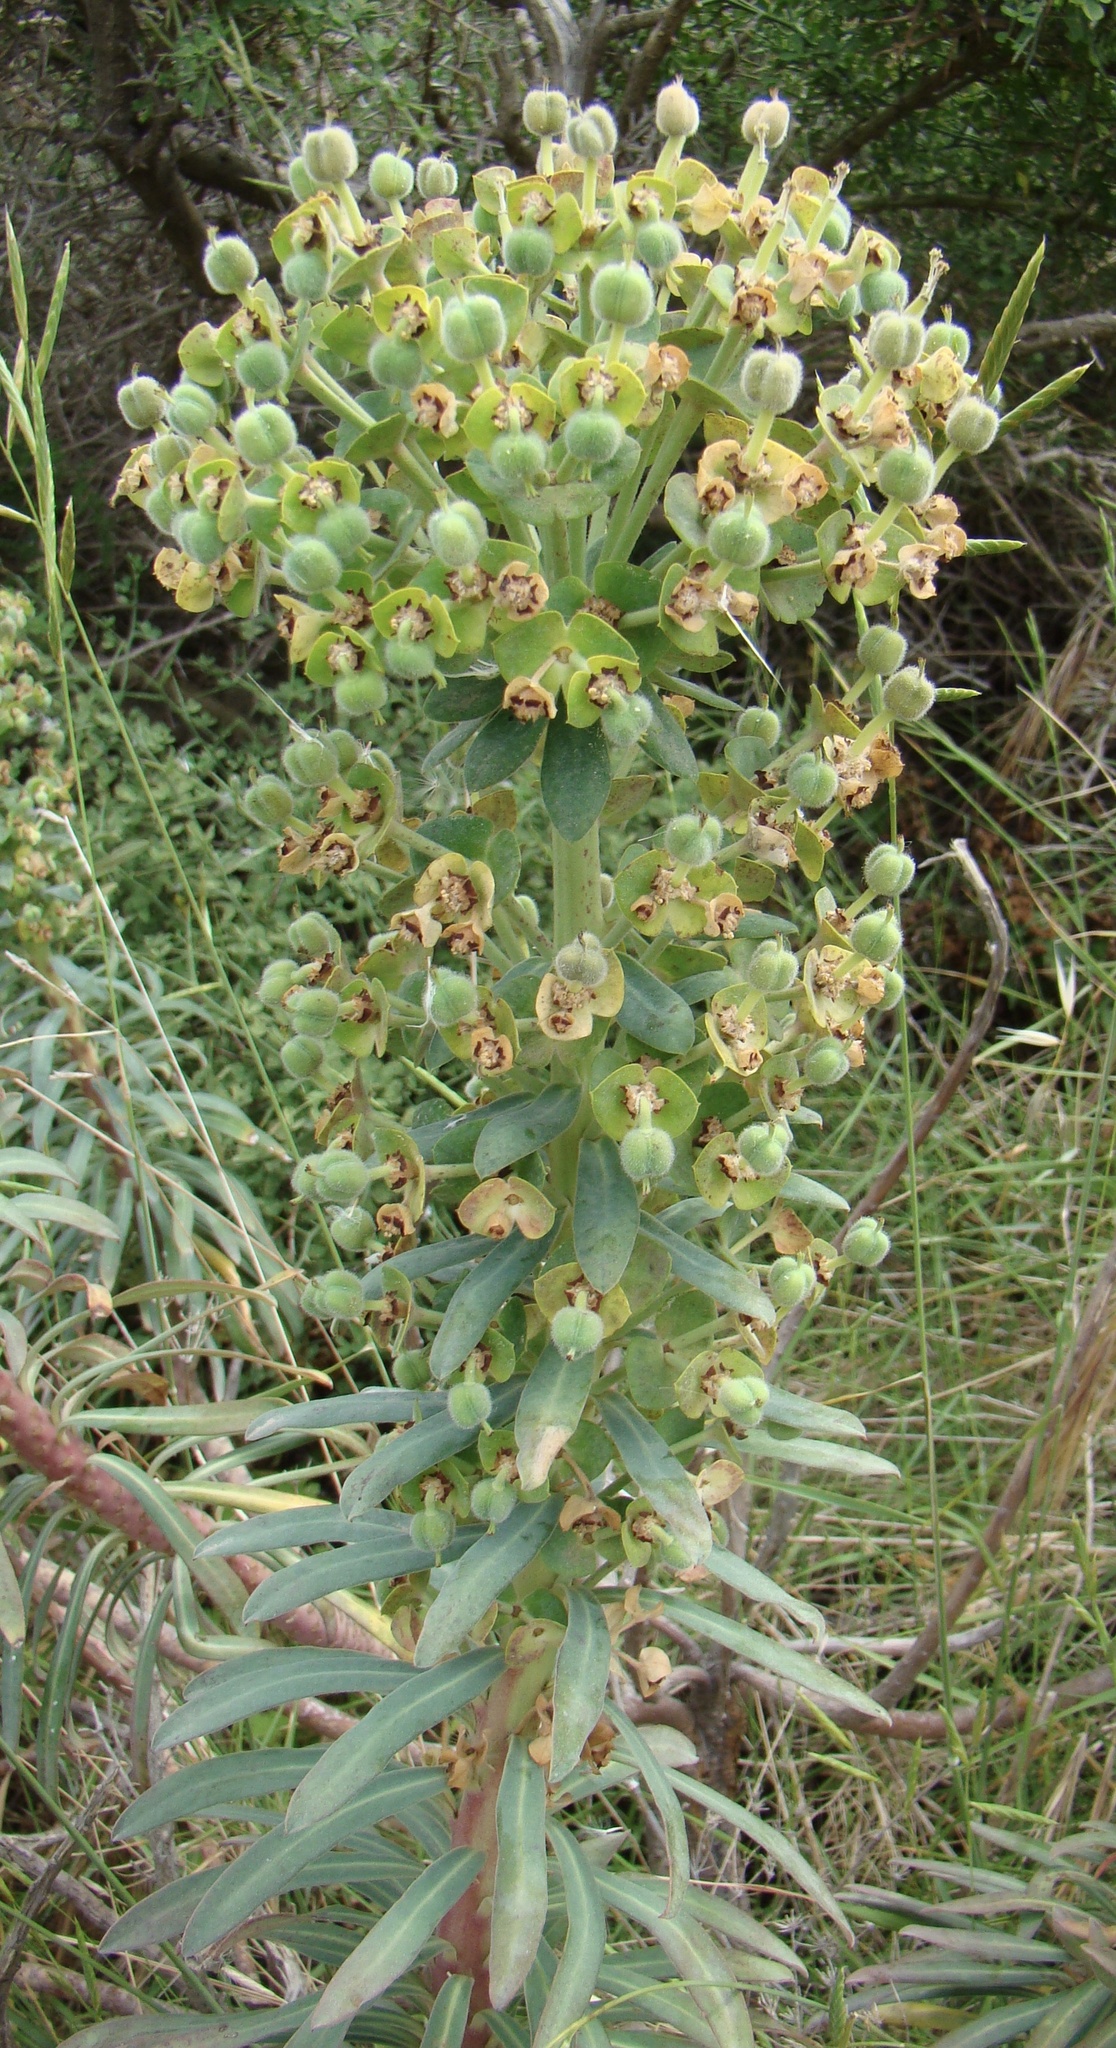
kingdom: Plantae
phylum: Tracheophyta
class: Magnoliopsida
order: Malpighiales
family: Euphorbiaceae
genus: Euphorbia
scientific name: Euphorbia characias
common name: Mediterranean spurge
